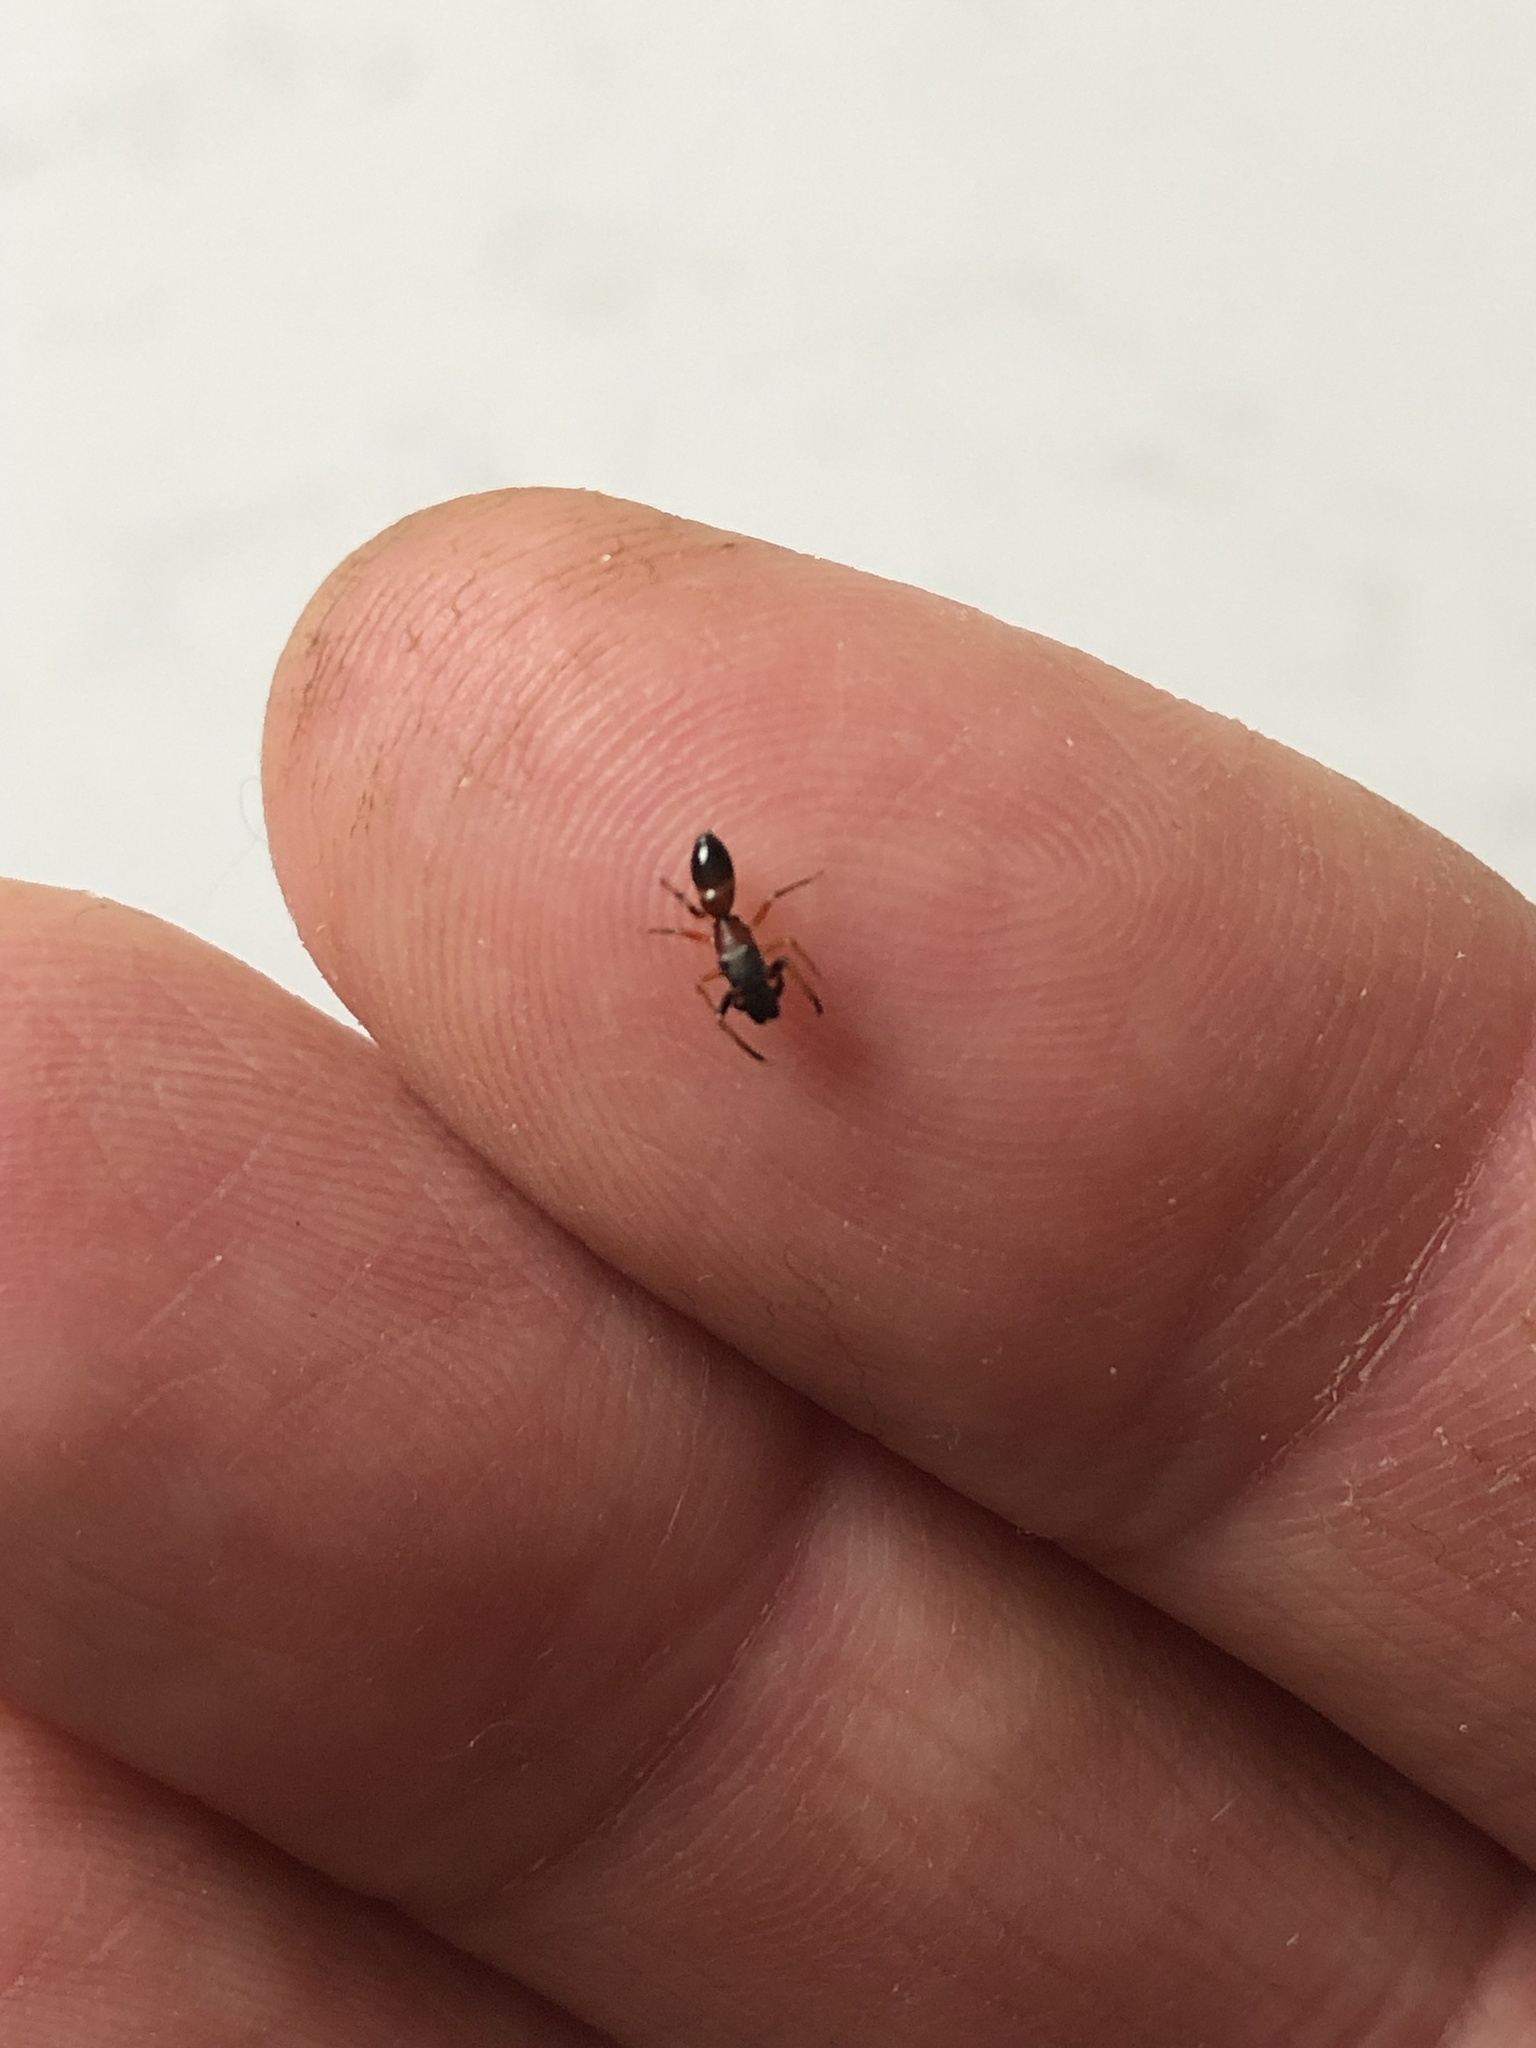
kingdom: Animalia
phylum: Arthropoda
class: Arachnida
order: Araneae
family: Salticidae
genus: Myrmarachne
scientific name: Myrmarachne formicaria
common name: Ant mimic jumping spider
